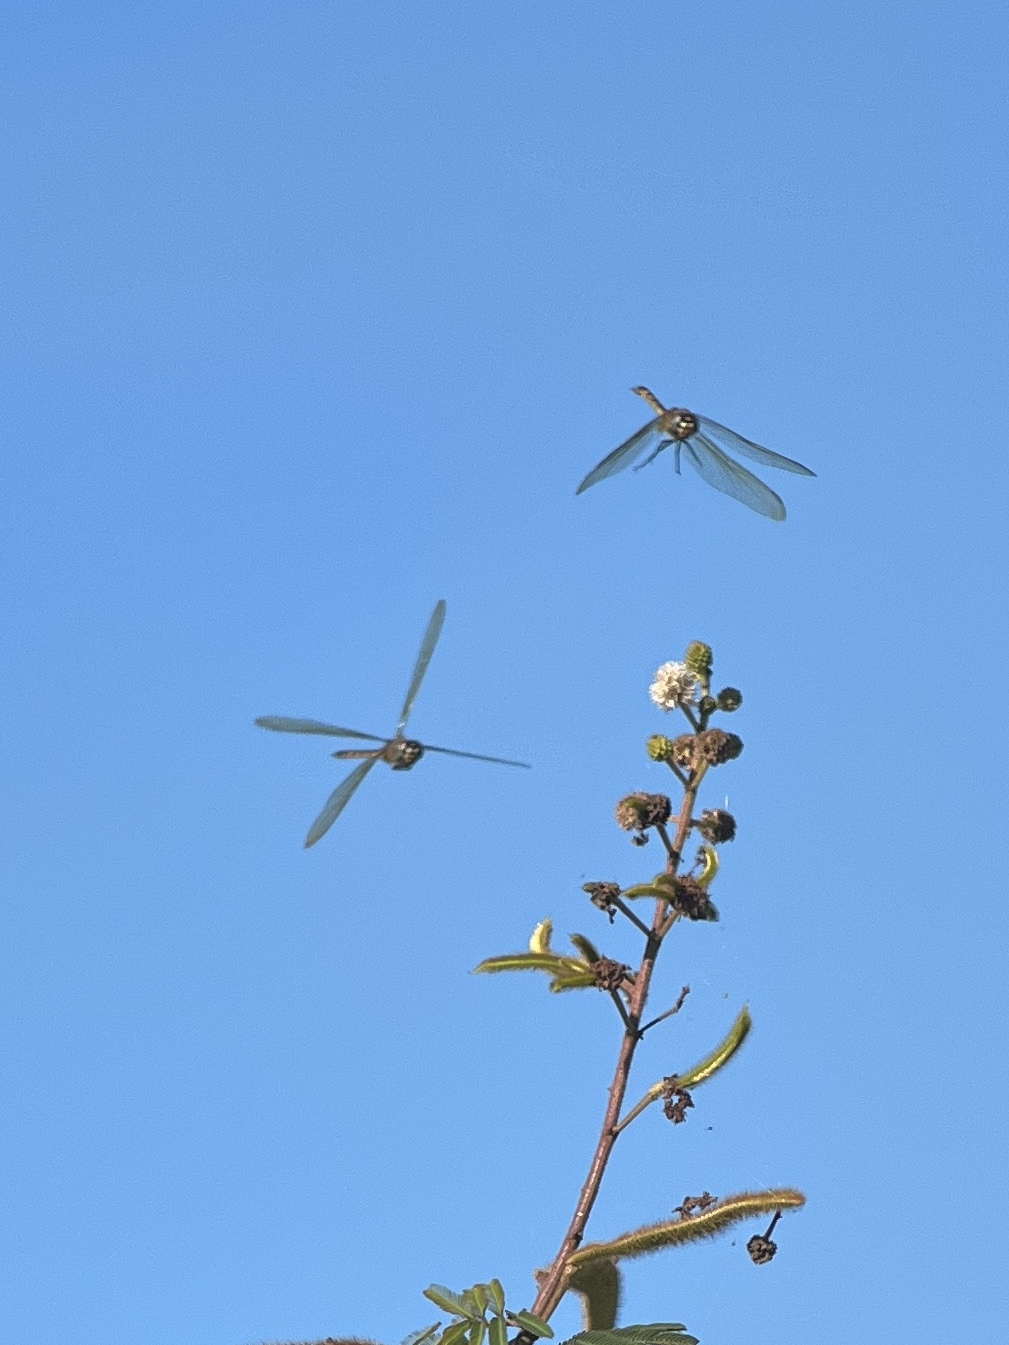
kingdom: Animalia
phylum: Arthropoda
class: Insecta
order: Odonata
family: Libellulidae
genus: Brachymesia
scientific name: Brachymesia herbida
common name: Tawny pennant
